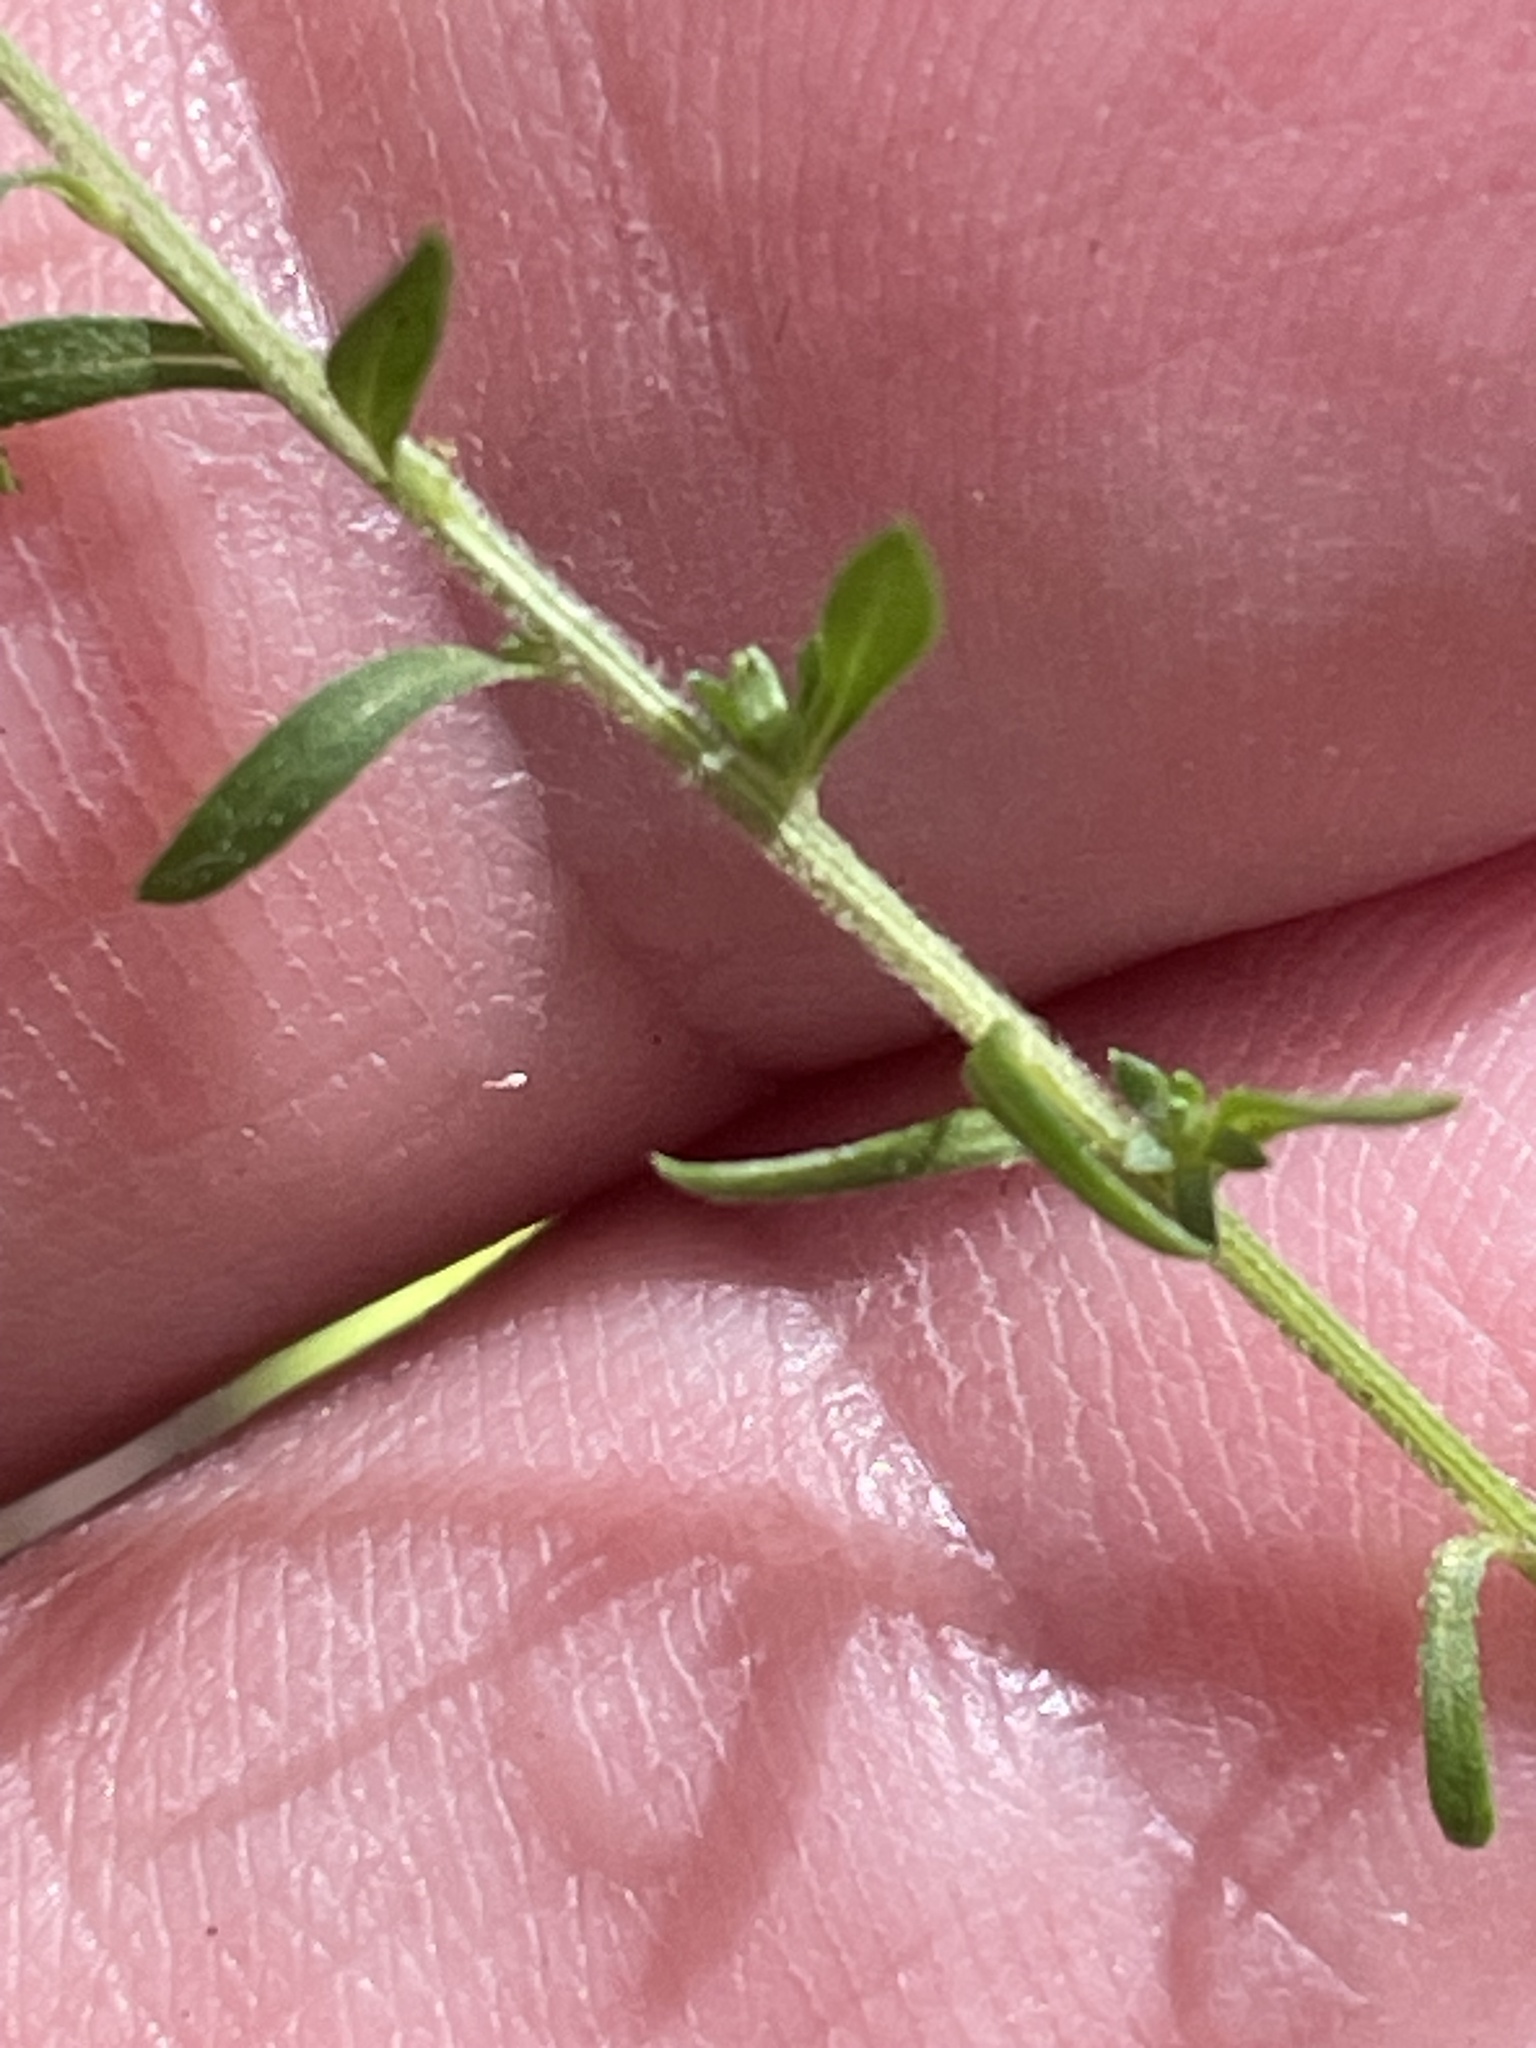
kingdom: Plantae
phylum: Tracheophyta
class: Magnoliopsida
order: Asterales
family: Asteraceae
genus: Symphyotrichum
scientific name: Symphyotrichum lateriflorum
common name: Calico aster
